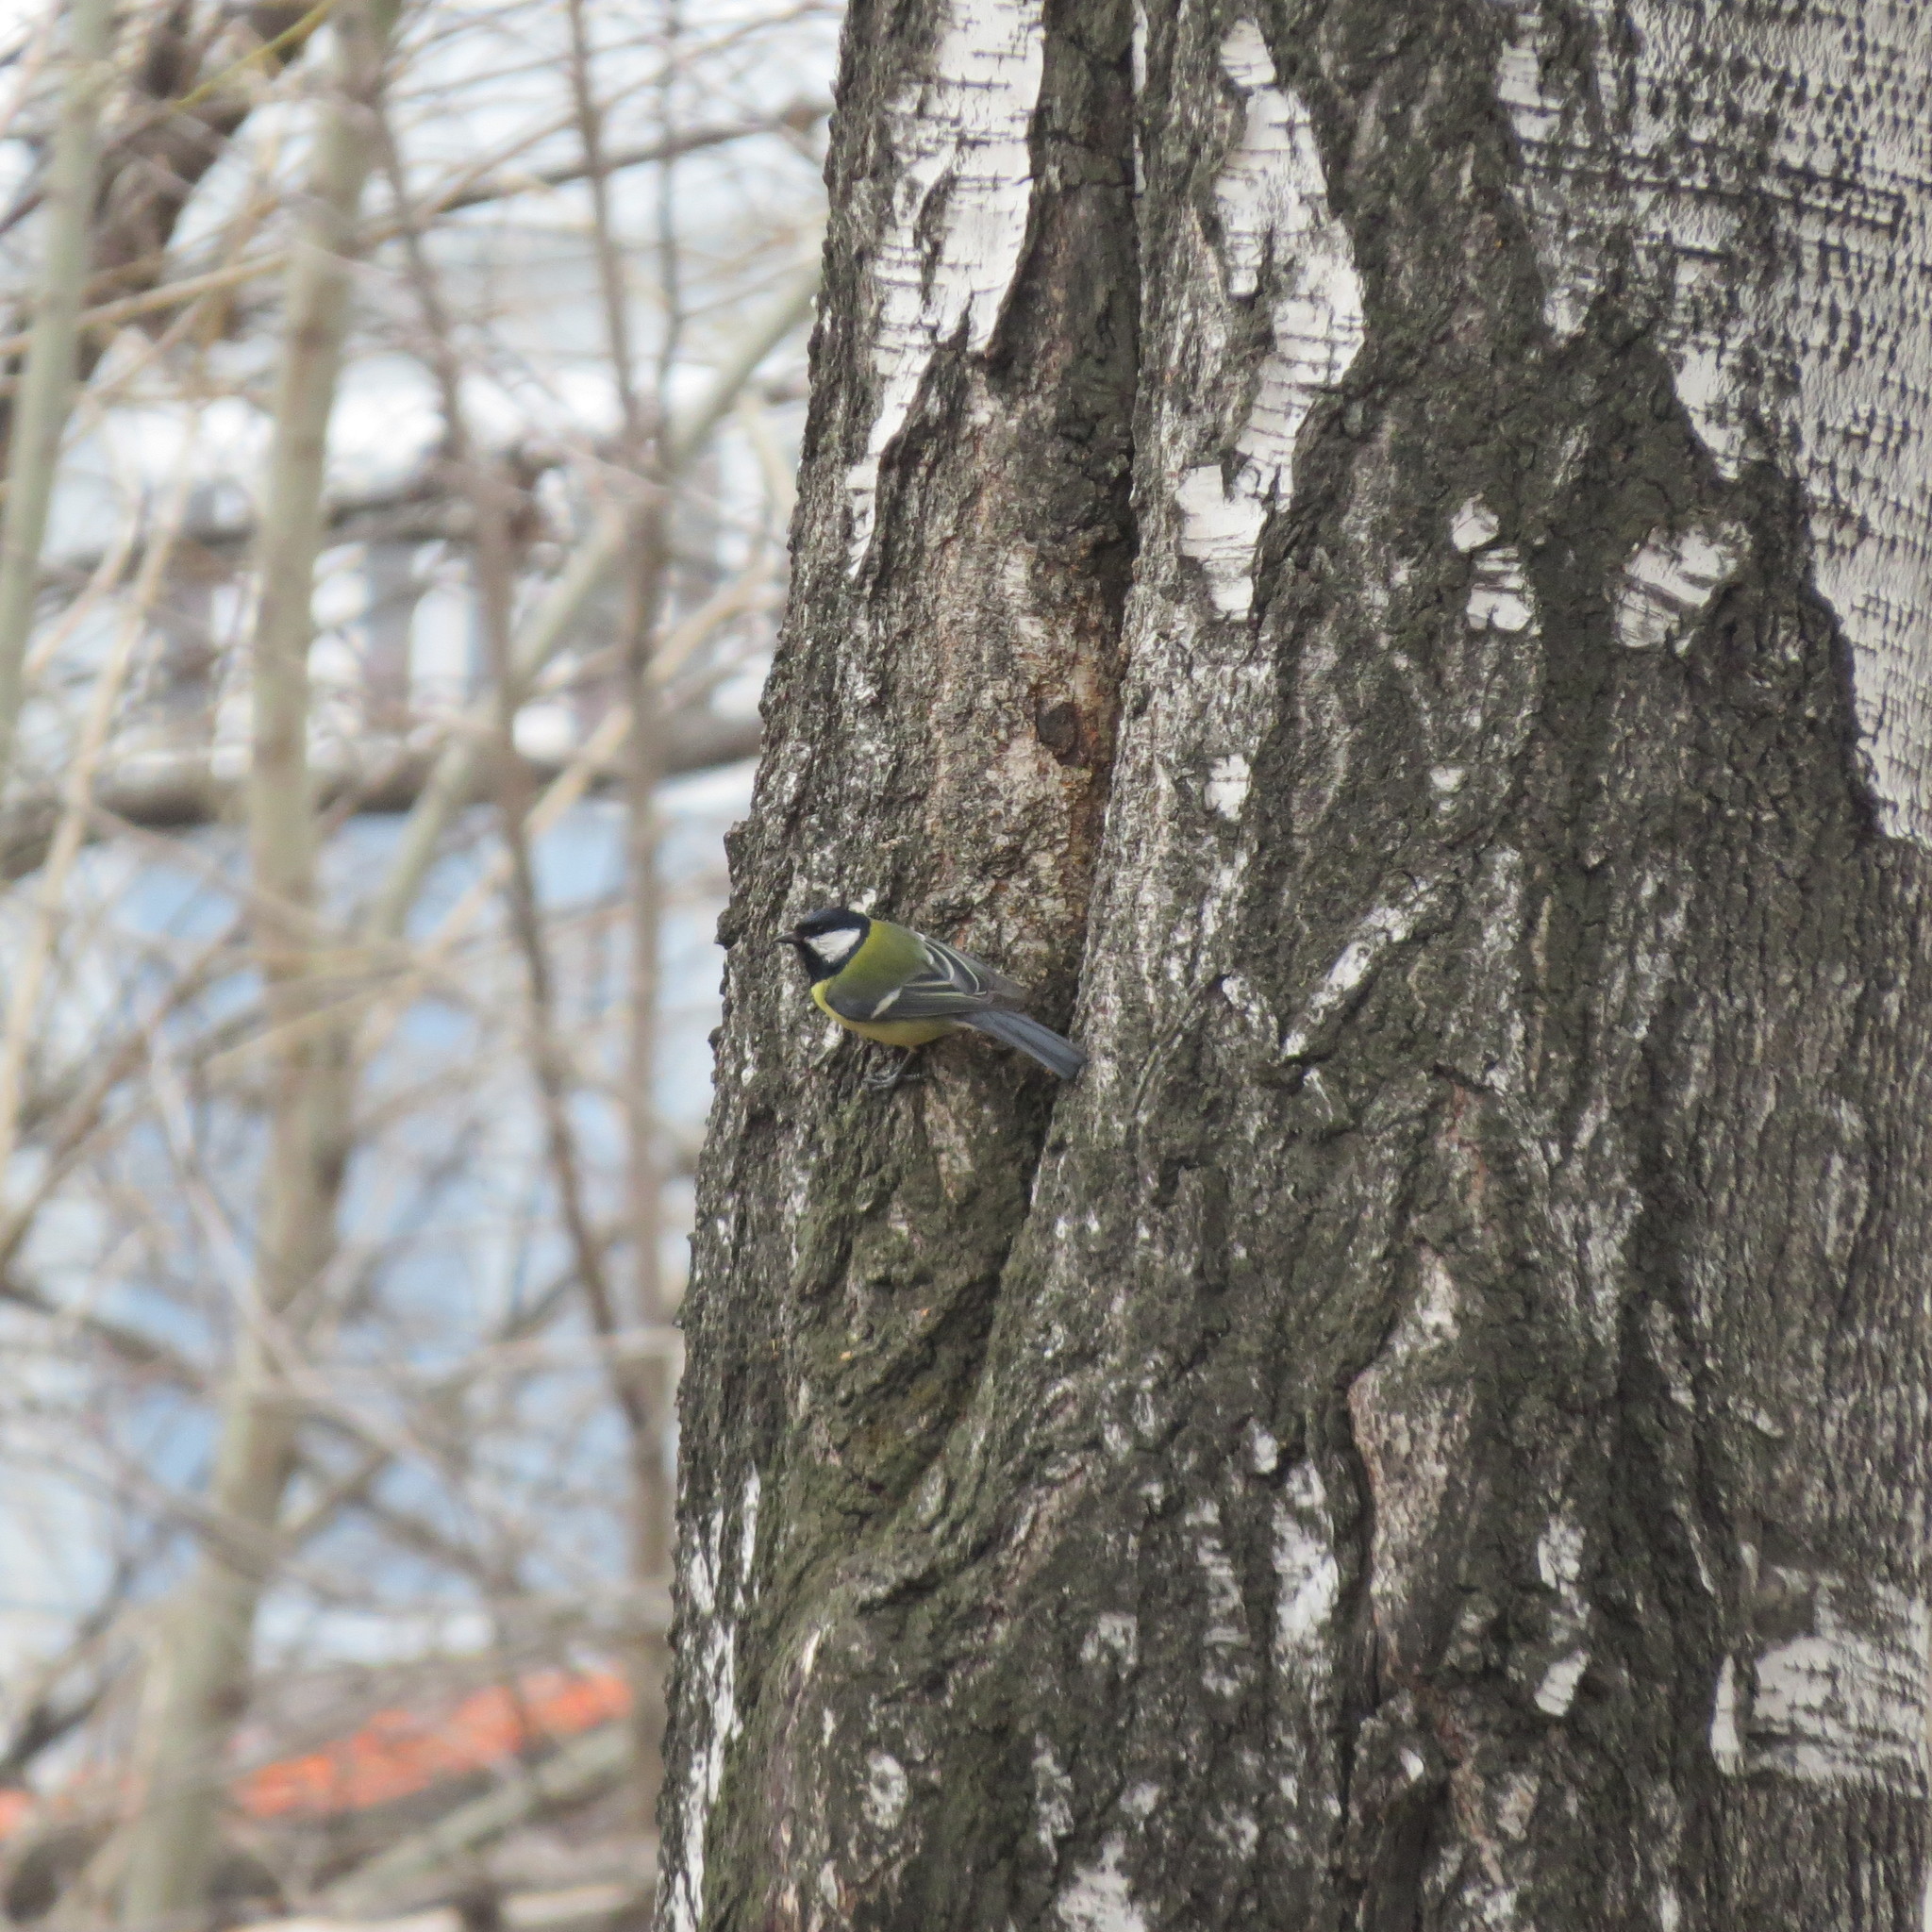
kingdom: Animalia
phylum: Chordata
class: Aves
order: Passeriformes
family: Paridae
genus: Parus
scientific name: Parus major
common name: Great tit
